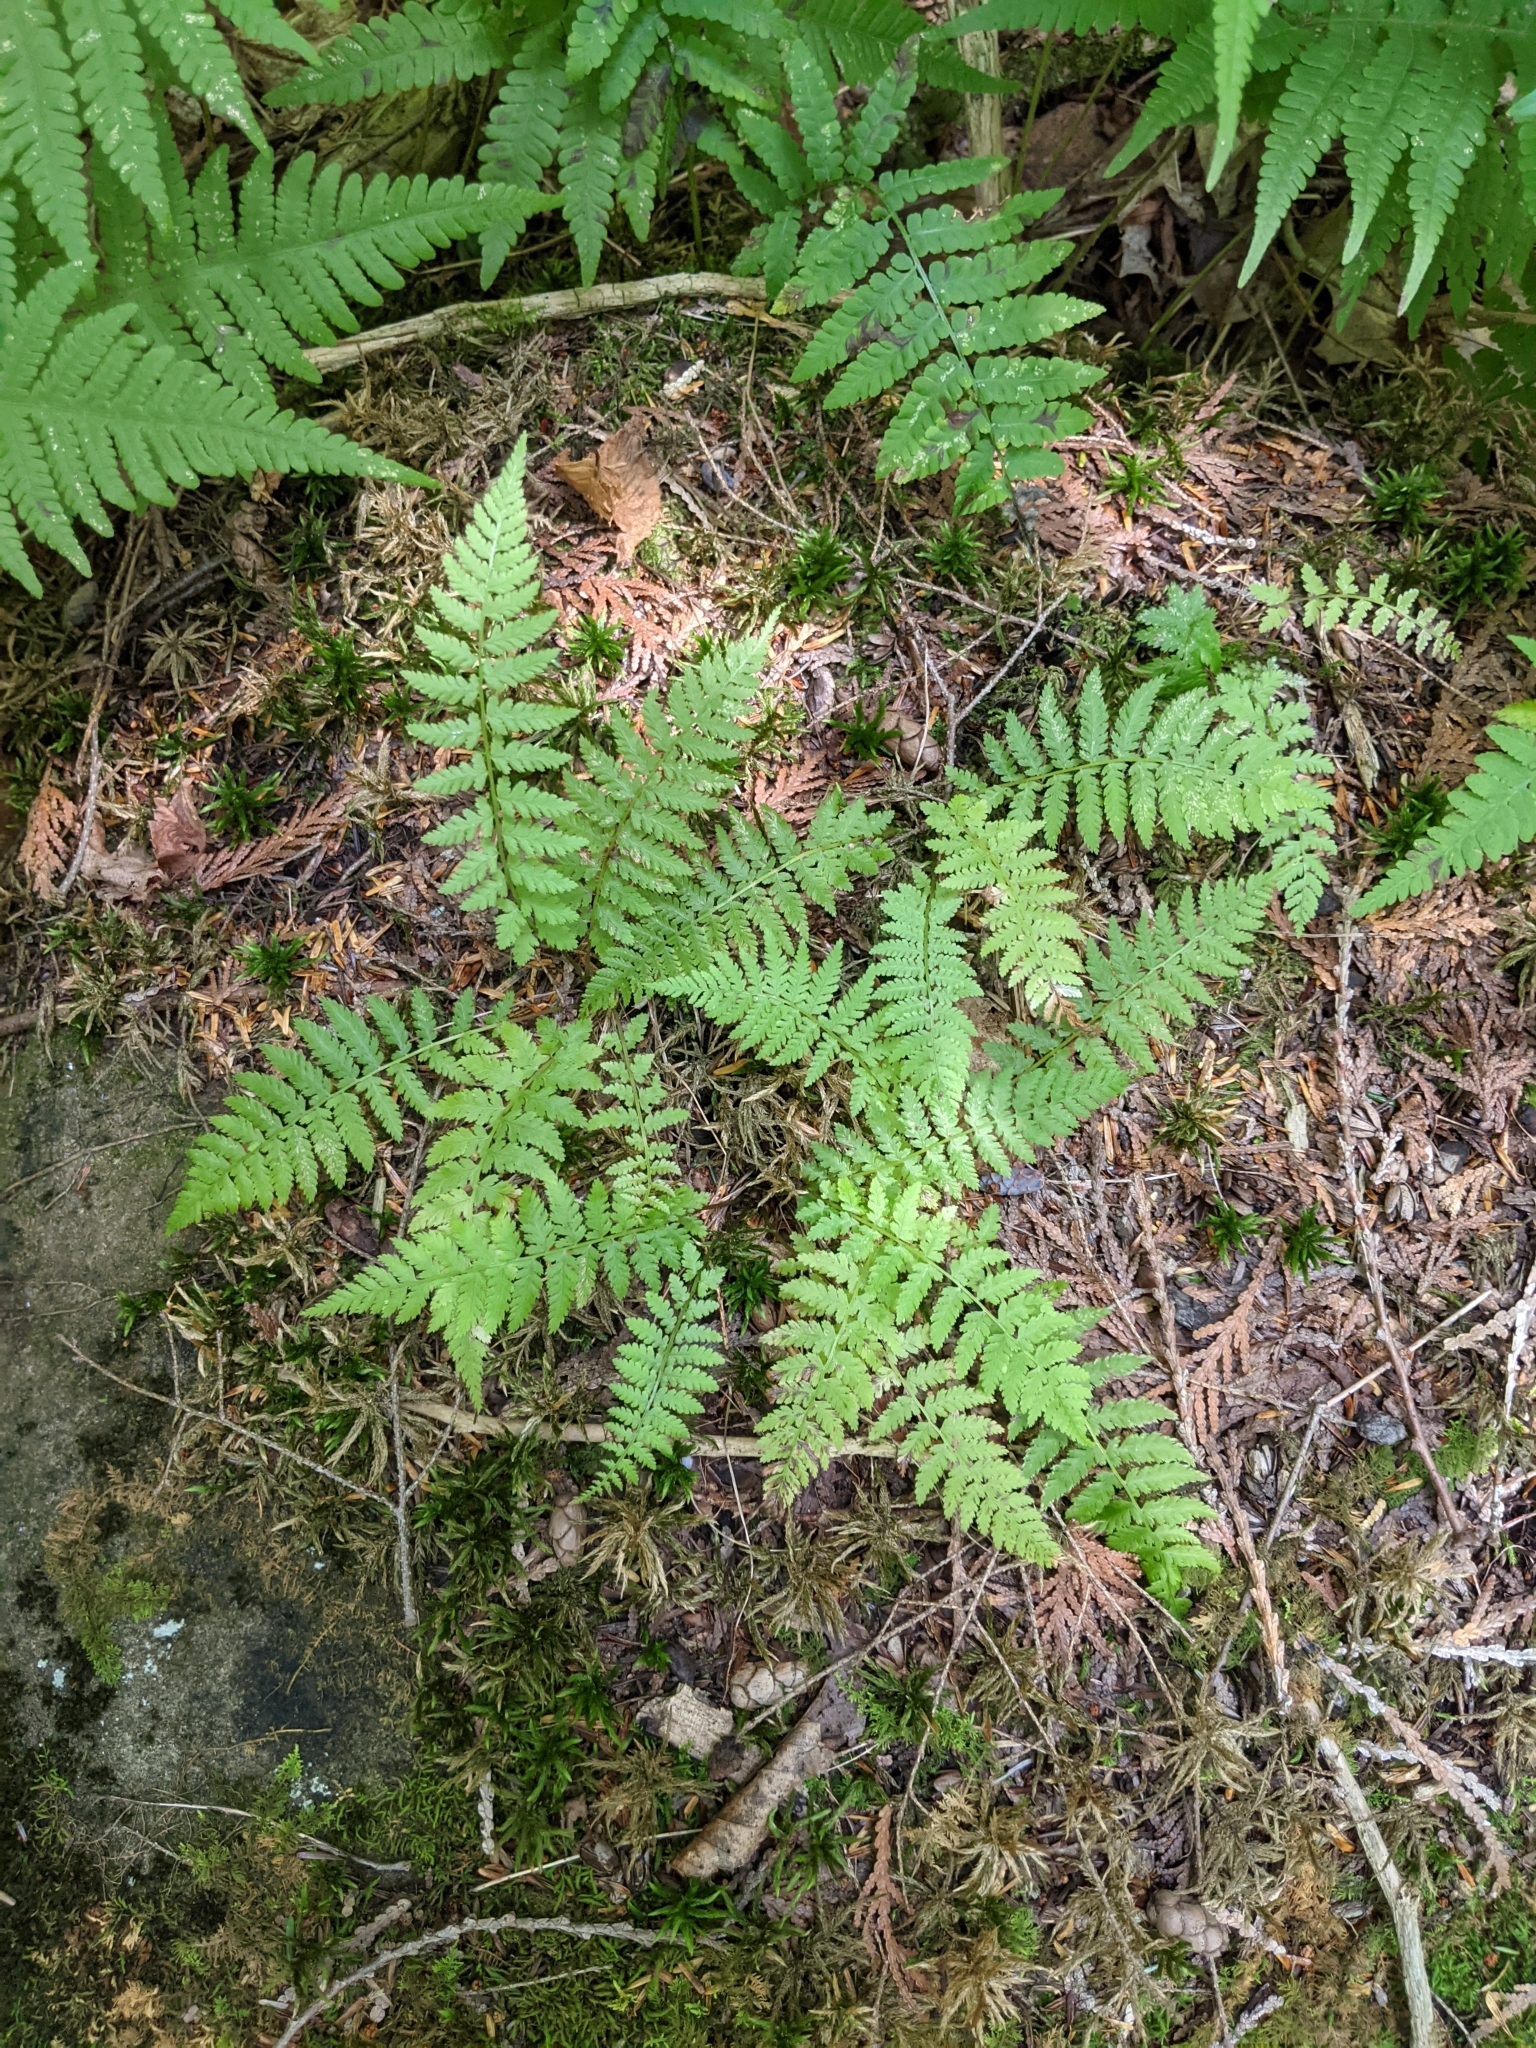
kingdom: Plantae
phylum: Tracheophyta
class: Polypodiopsida
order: Polypodiales
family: Athyriaceae
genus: Athyrium
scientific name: Athyrium angustum
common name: Northern lady fern
